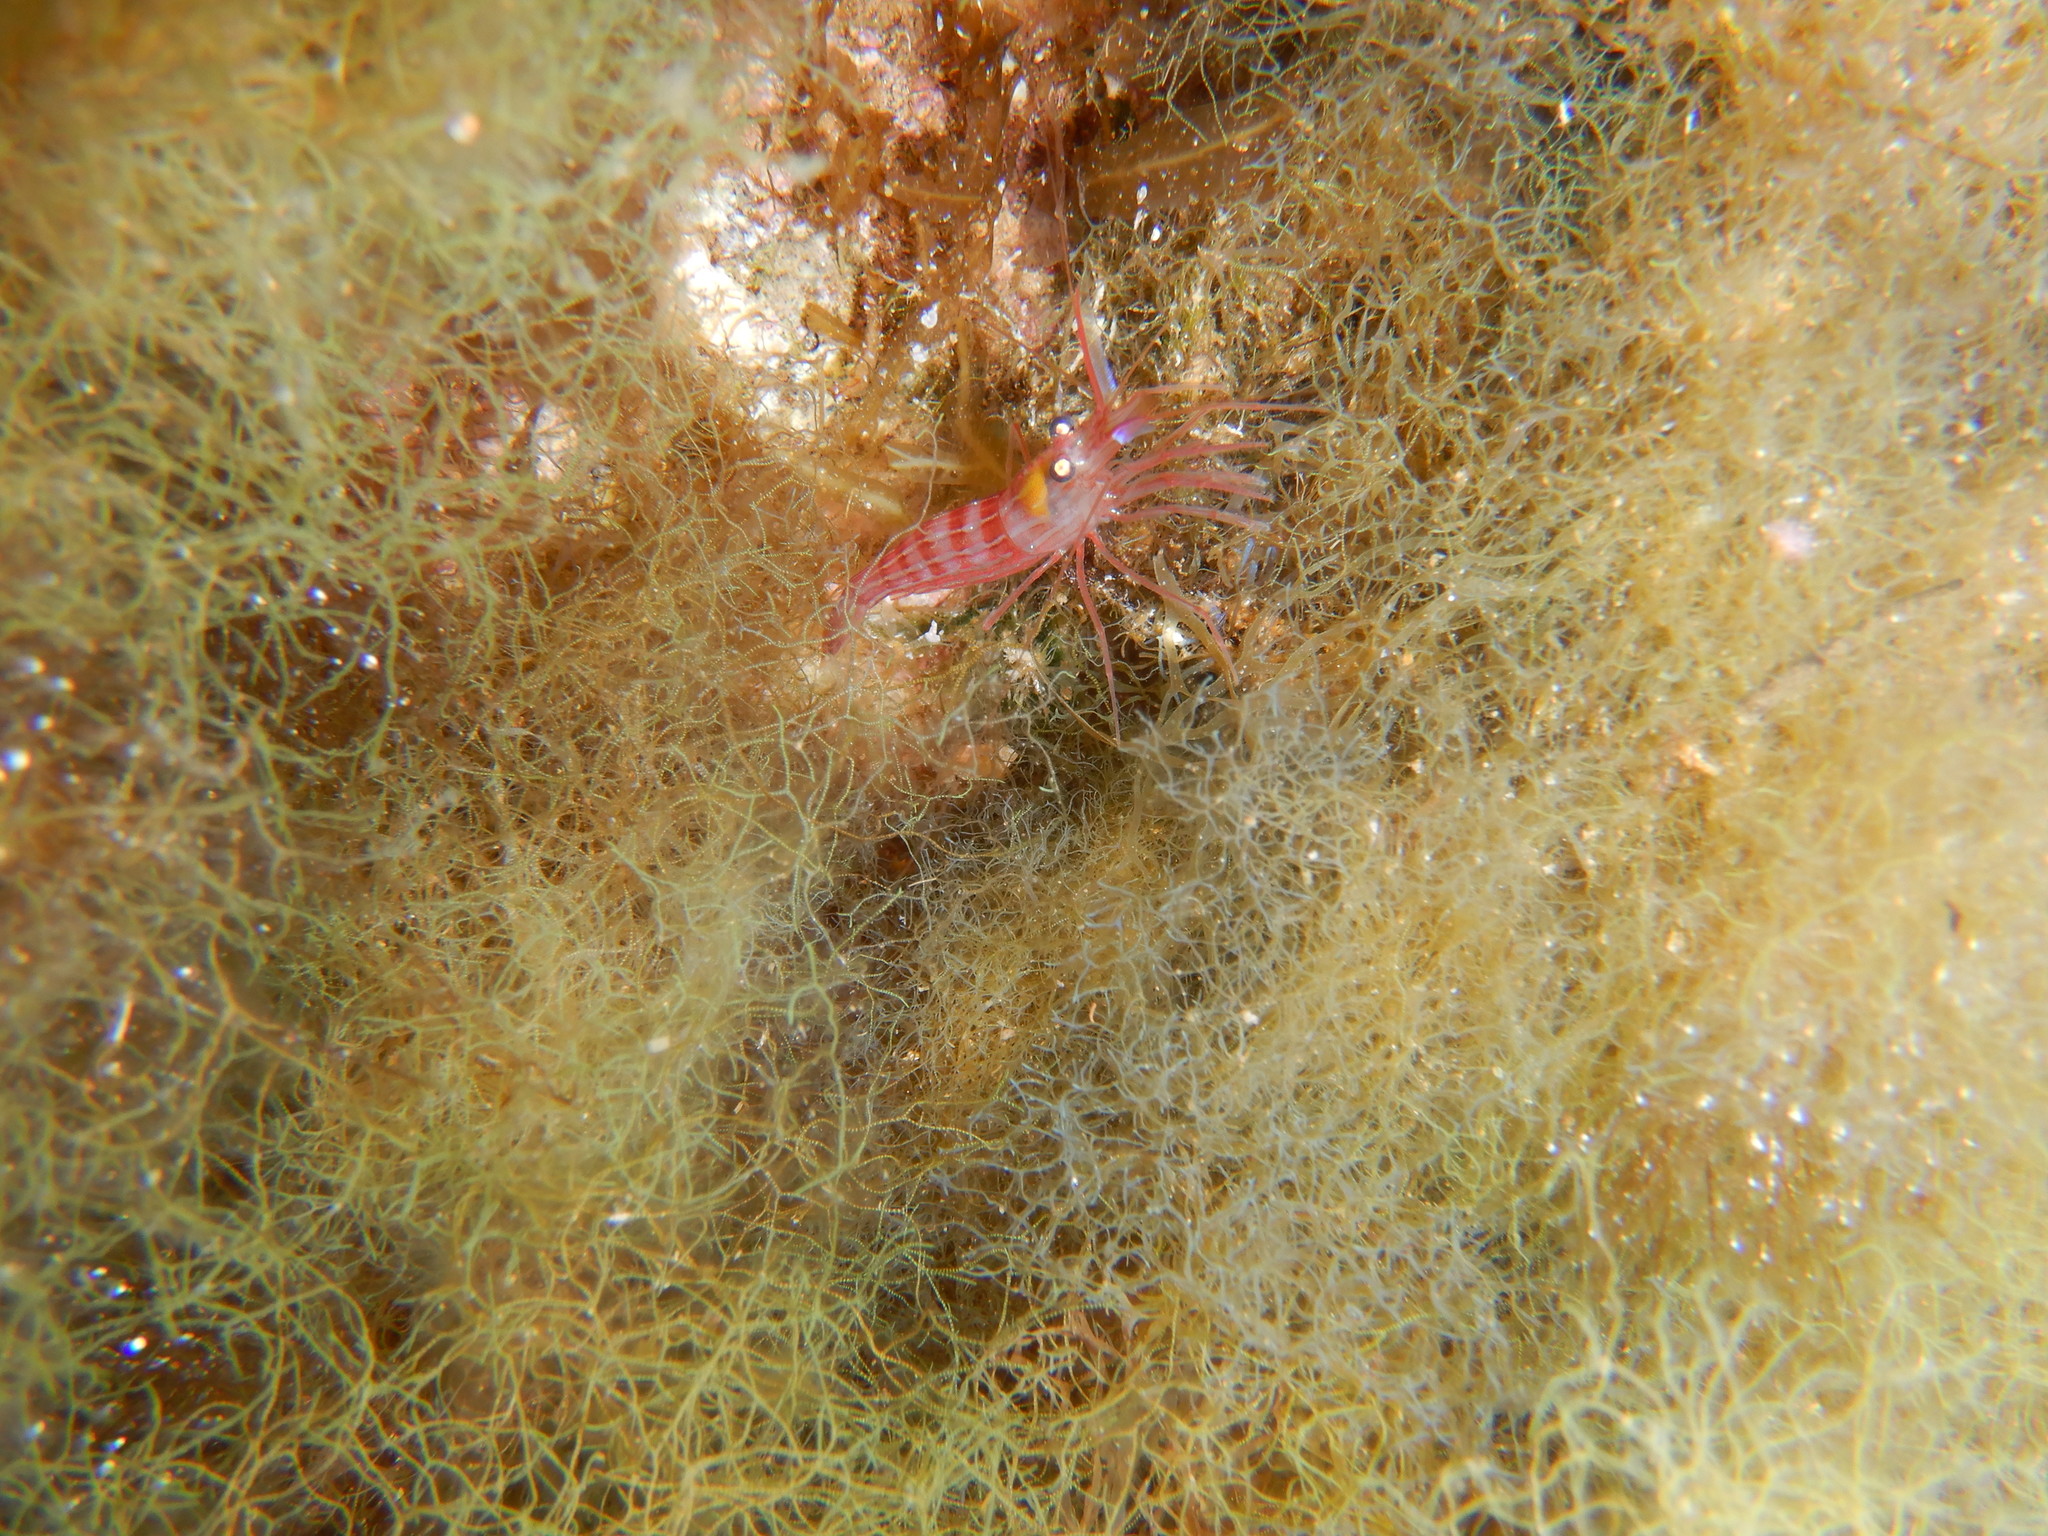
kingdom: Animalia
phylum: Arthropoda
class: Malacostraca
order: Decapoda
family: Lysmatidae
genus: Lysmata
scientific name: Lysmata seticaudata
